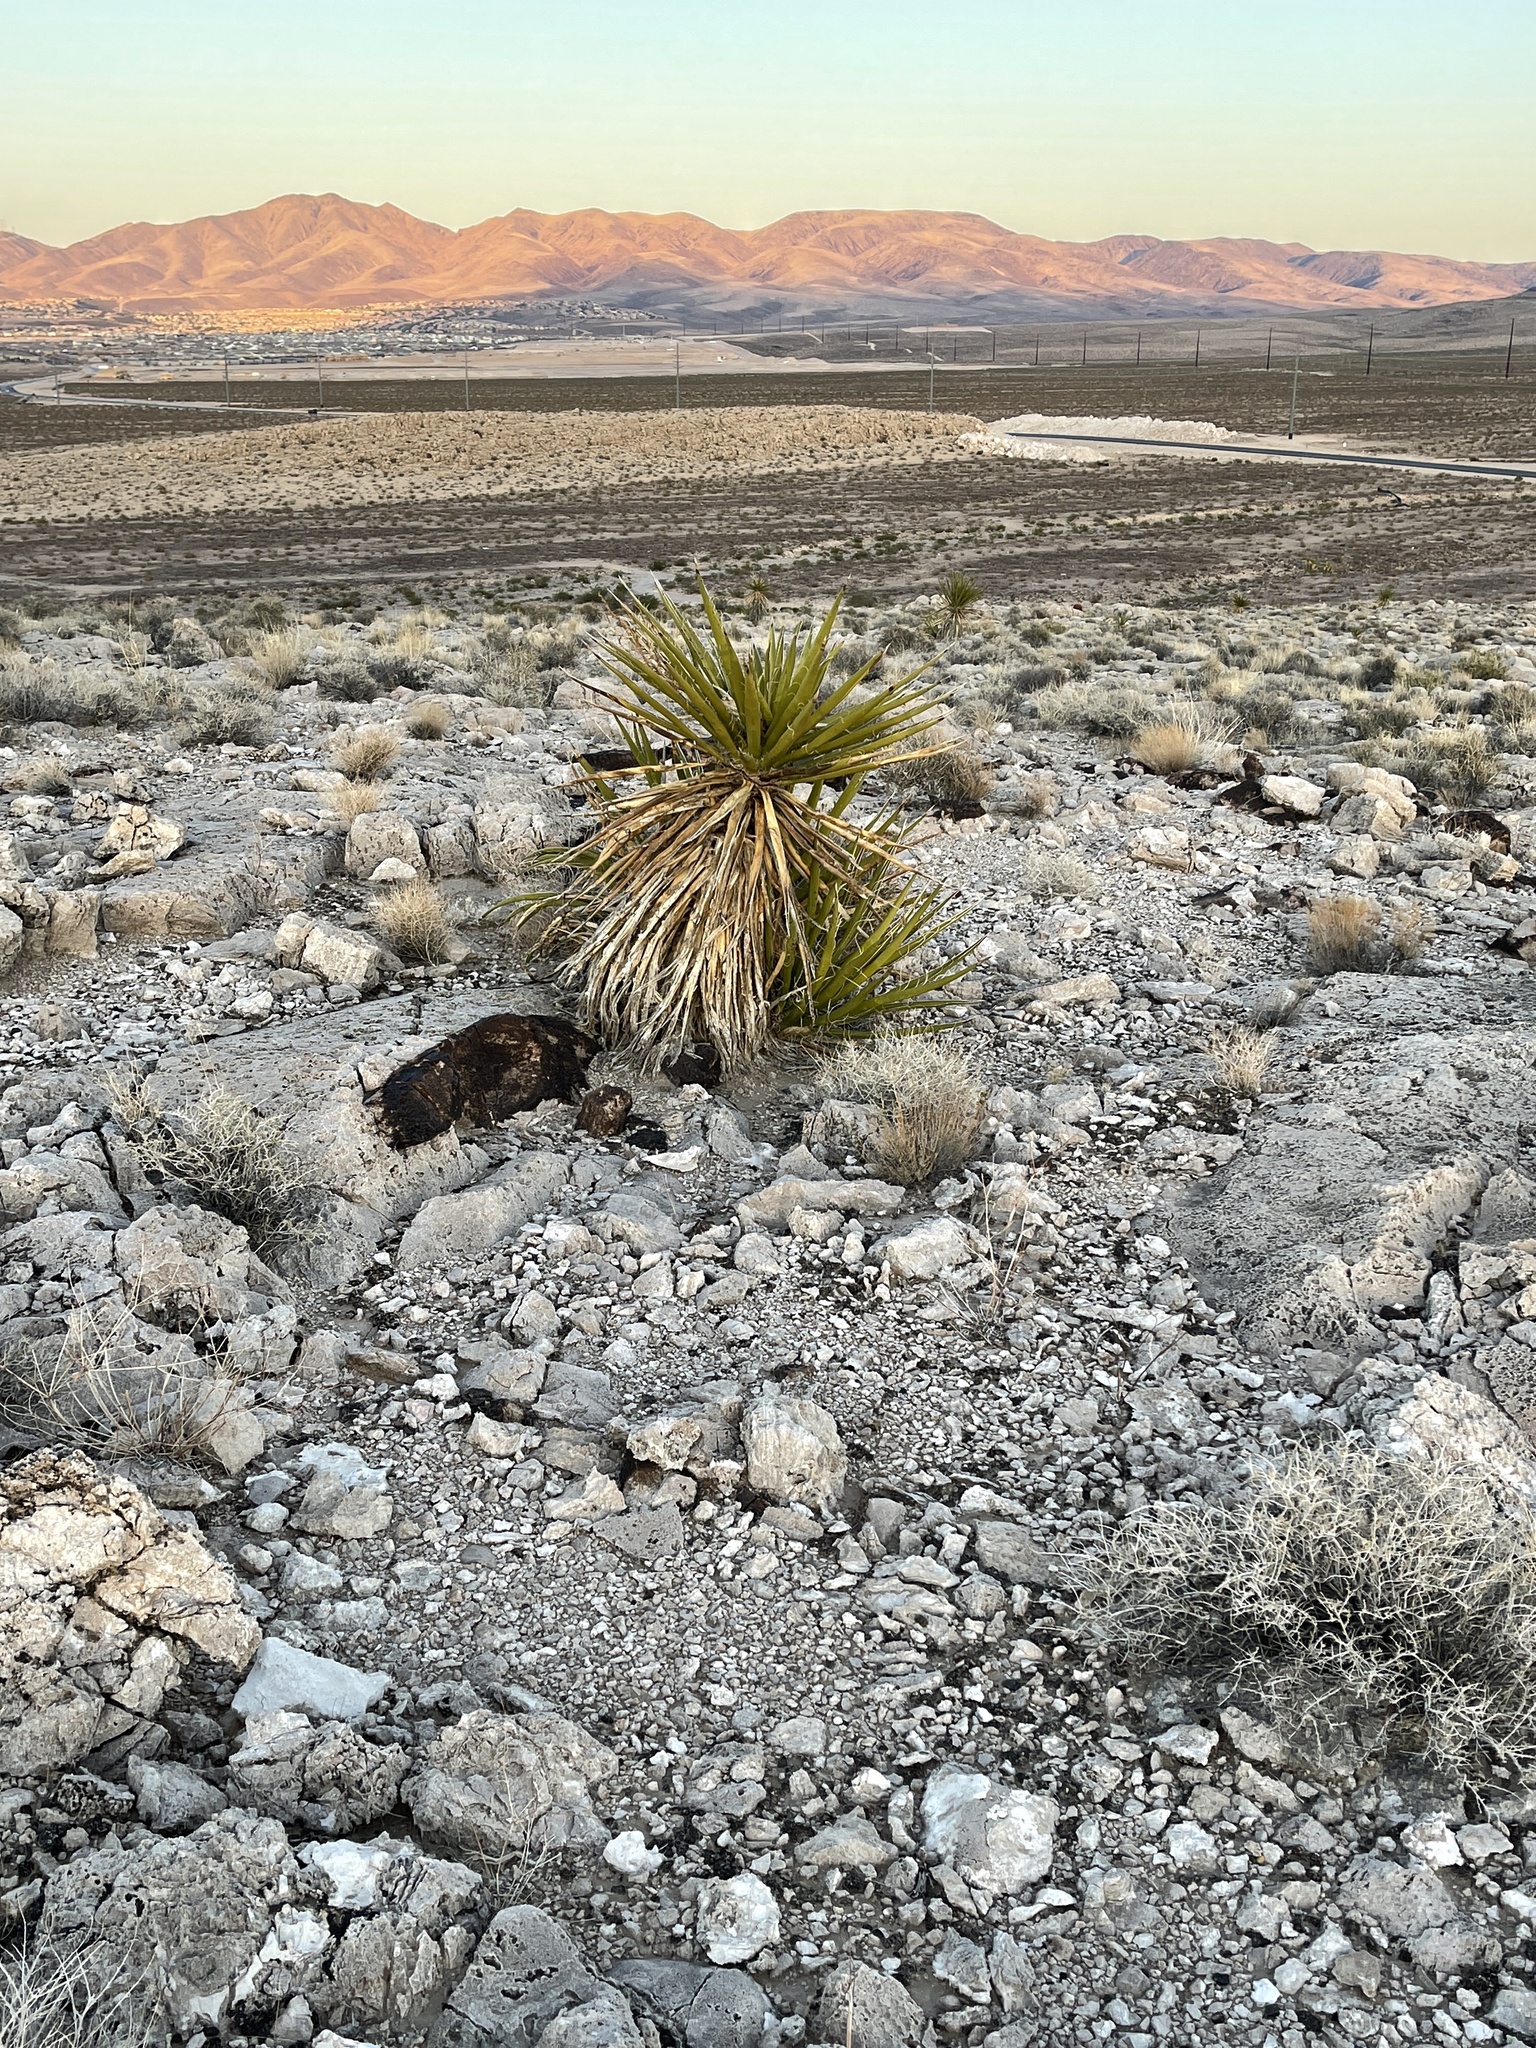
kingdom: Plantae
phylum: Tracheophyta
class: Liliopsida
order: Asparagales
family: Asparagaceae
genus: Yucca
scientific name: Yucca schidigera
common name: Mojave yucca
